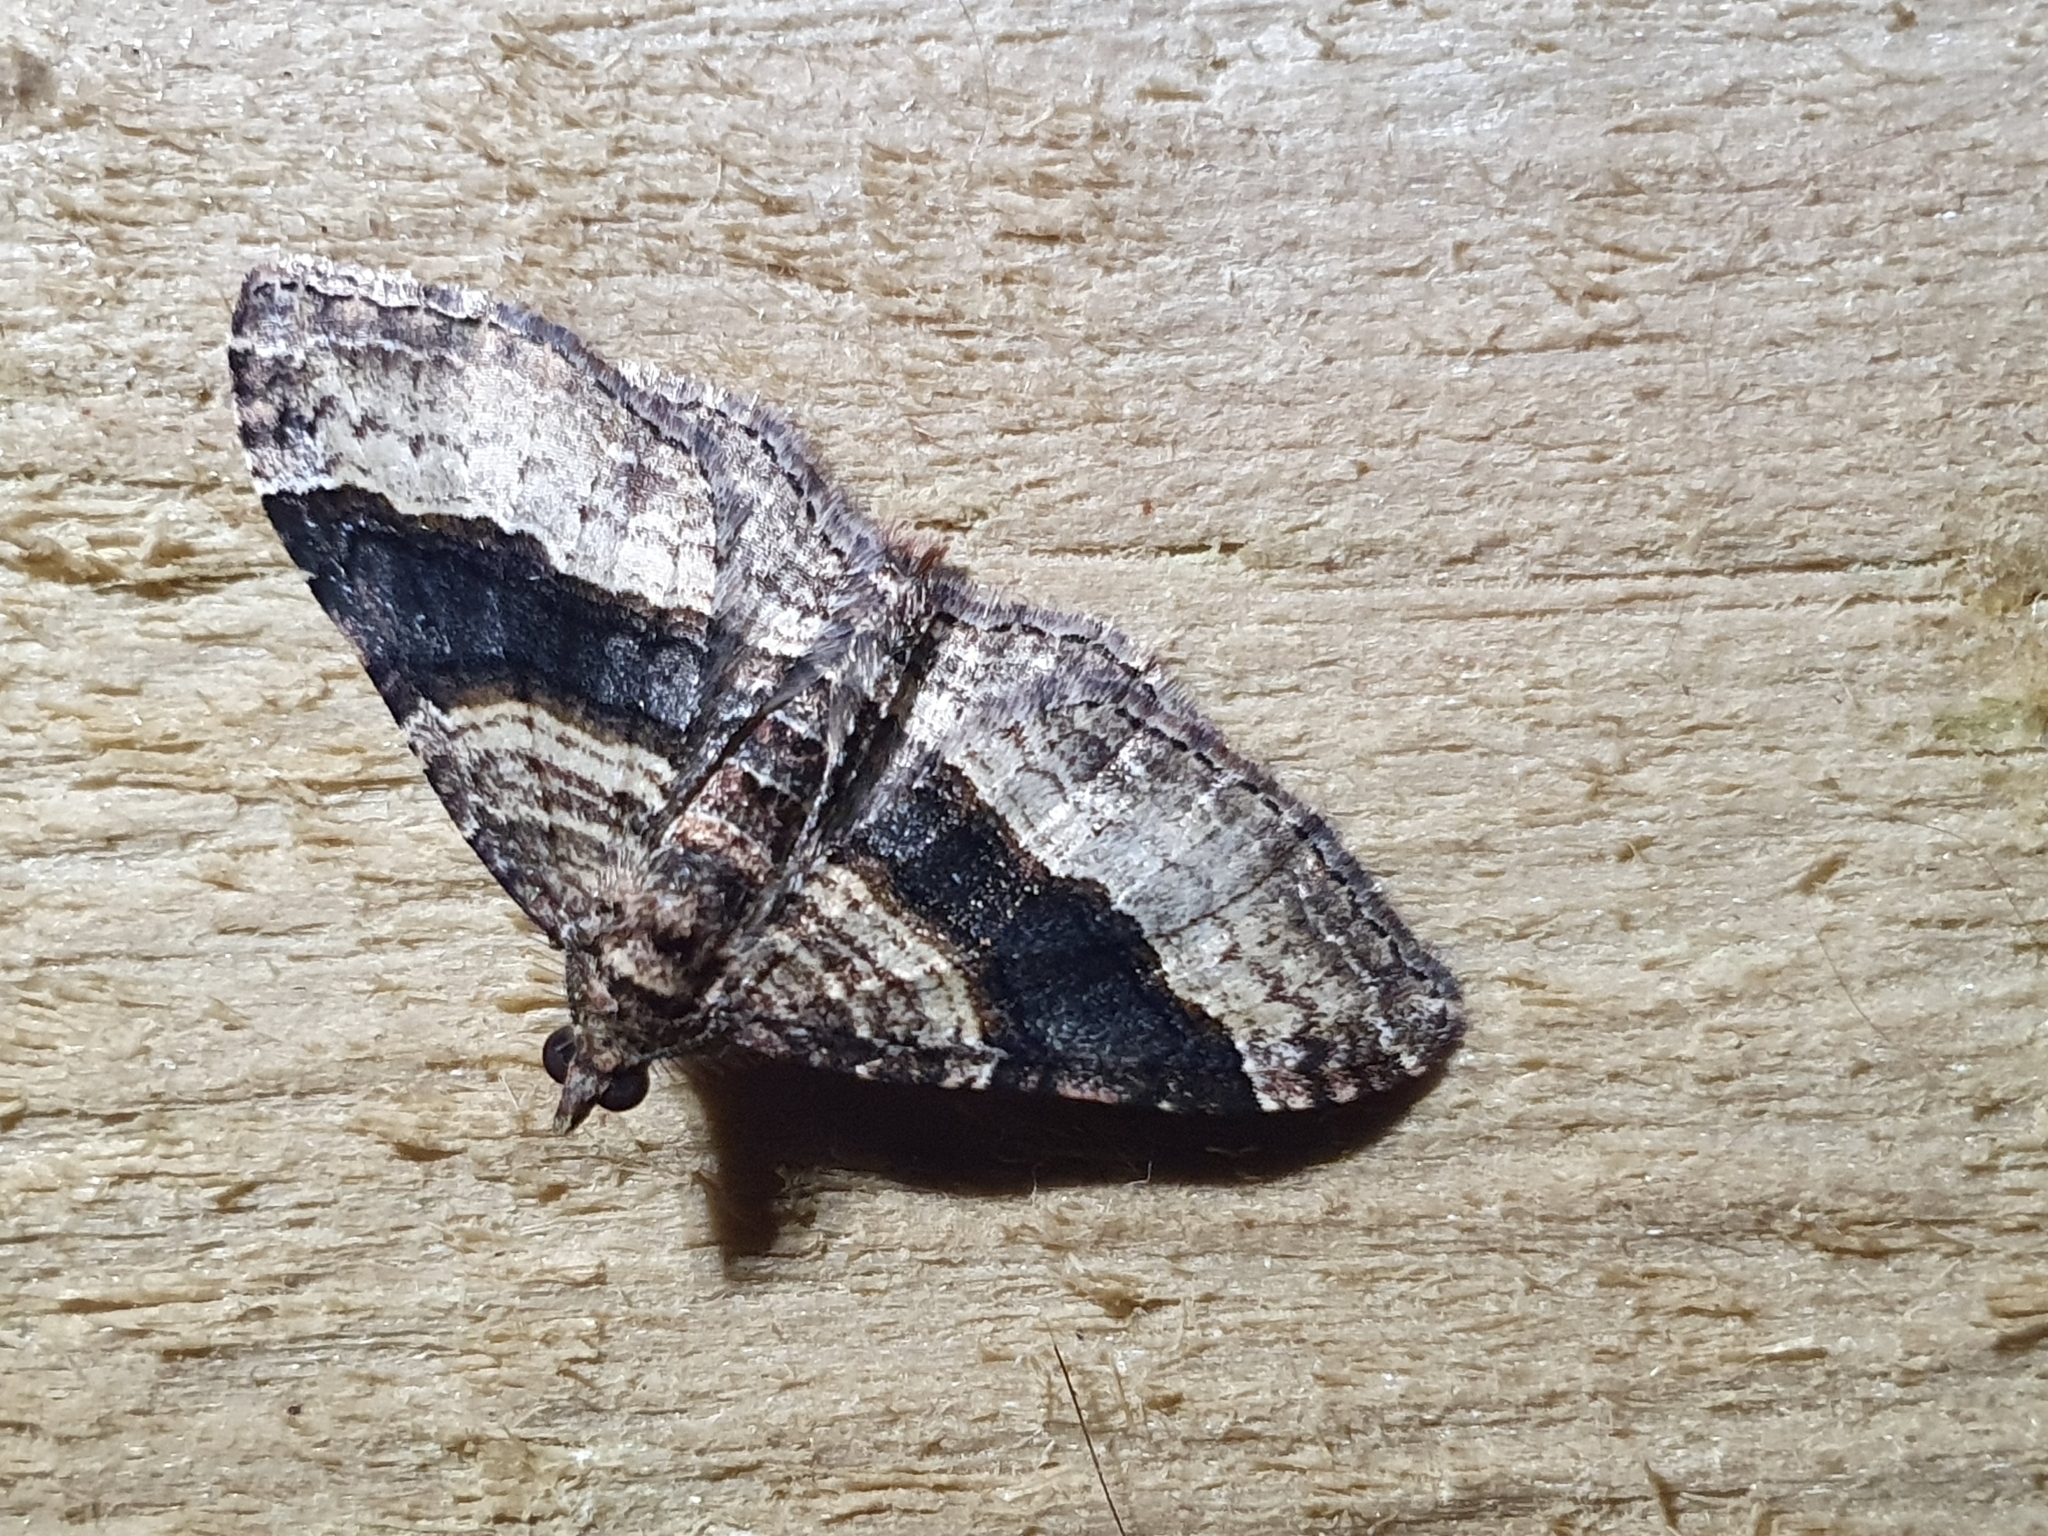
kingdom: Animalia
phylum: Arthropoda
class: Insecta
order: Lepidoptera
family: Geometridae
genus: Epyaxa
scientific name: Epyaxa lucidata
